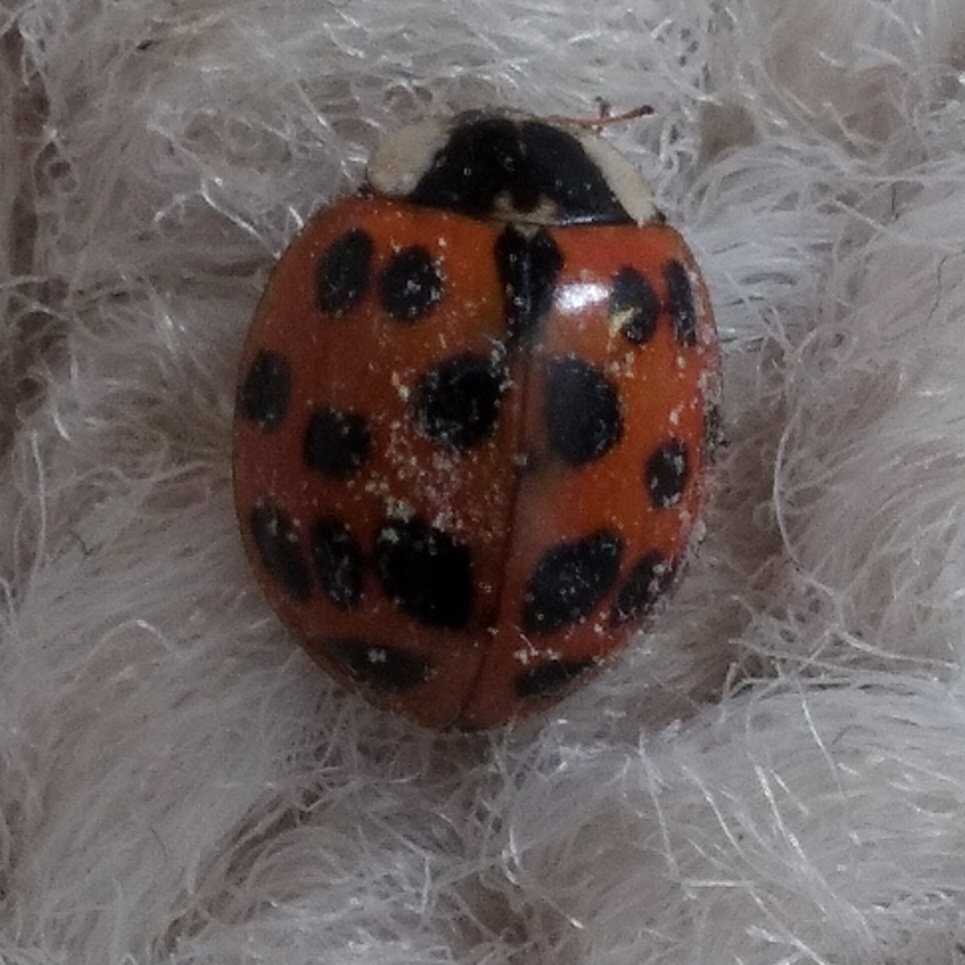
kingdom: Animalia
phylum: Arthropoda
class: Insecta
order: Coleoptera
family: Coccinellidae
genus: Harmonia
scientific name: Harmonia axyridis
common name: Harlequin ladybird
